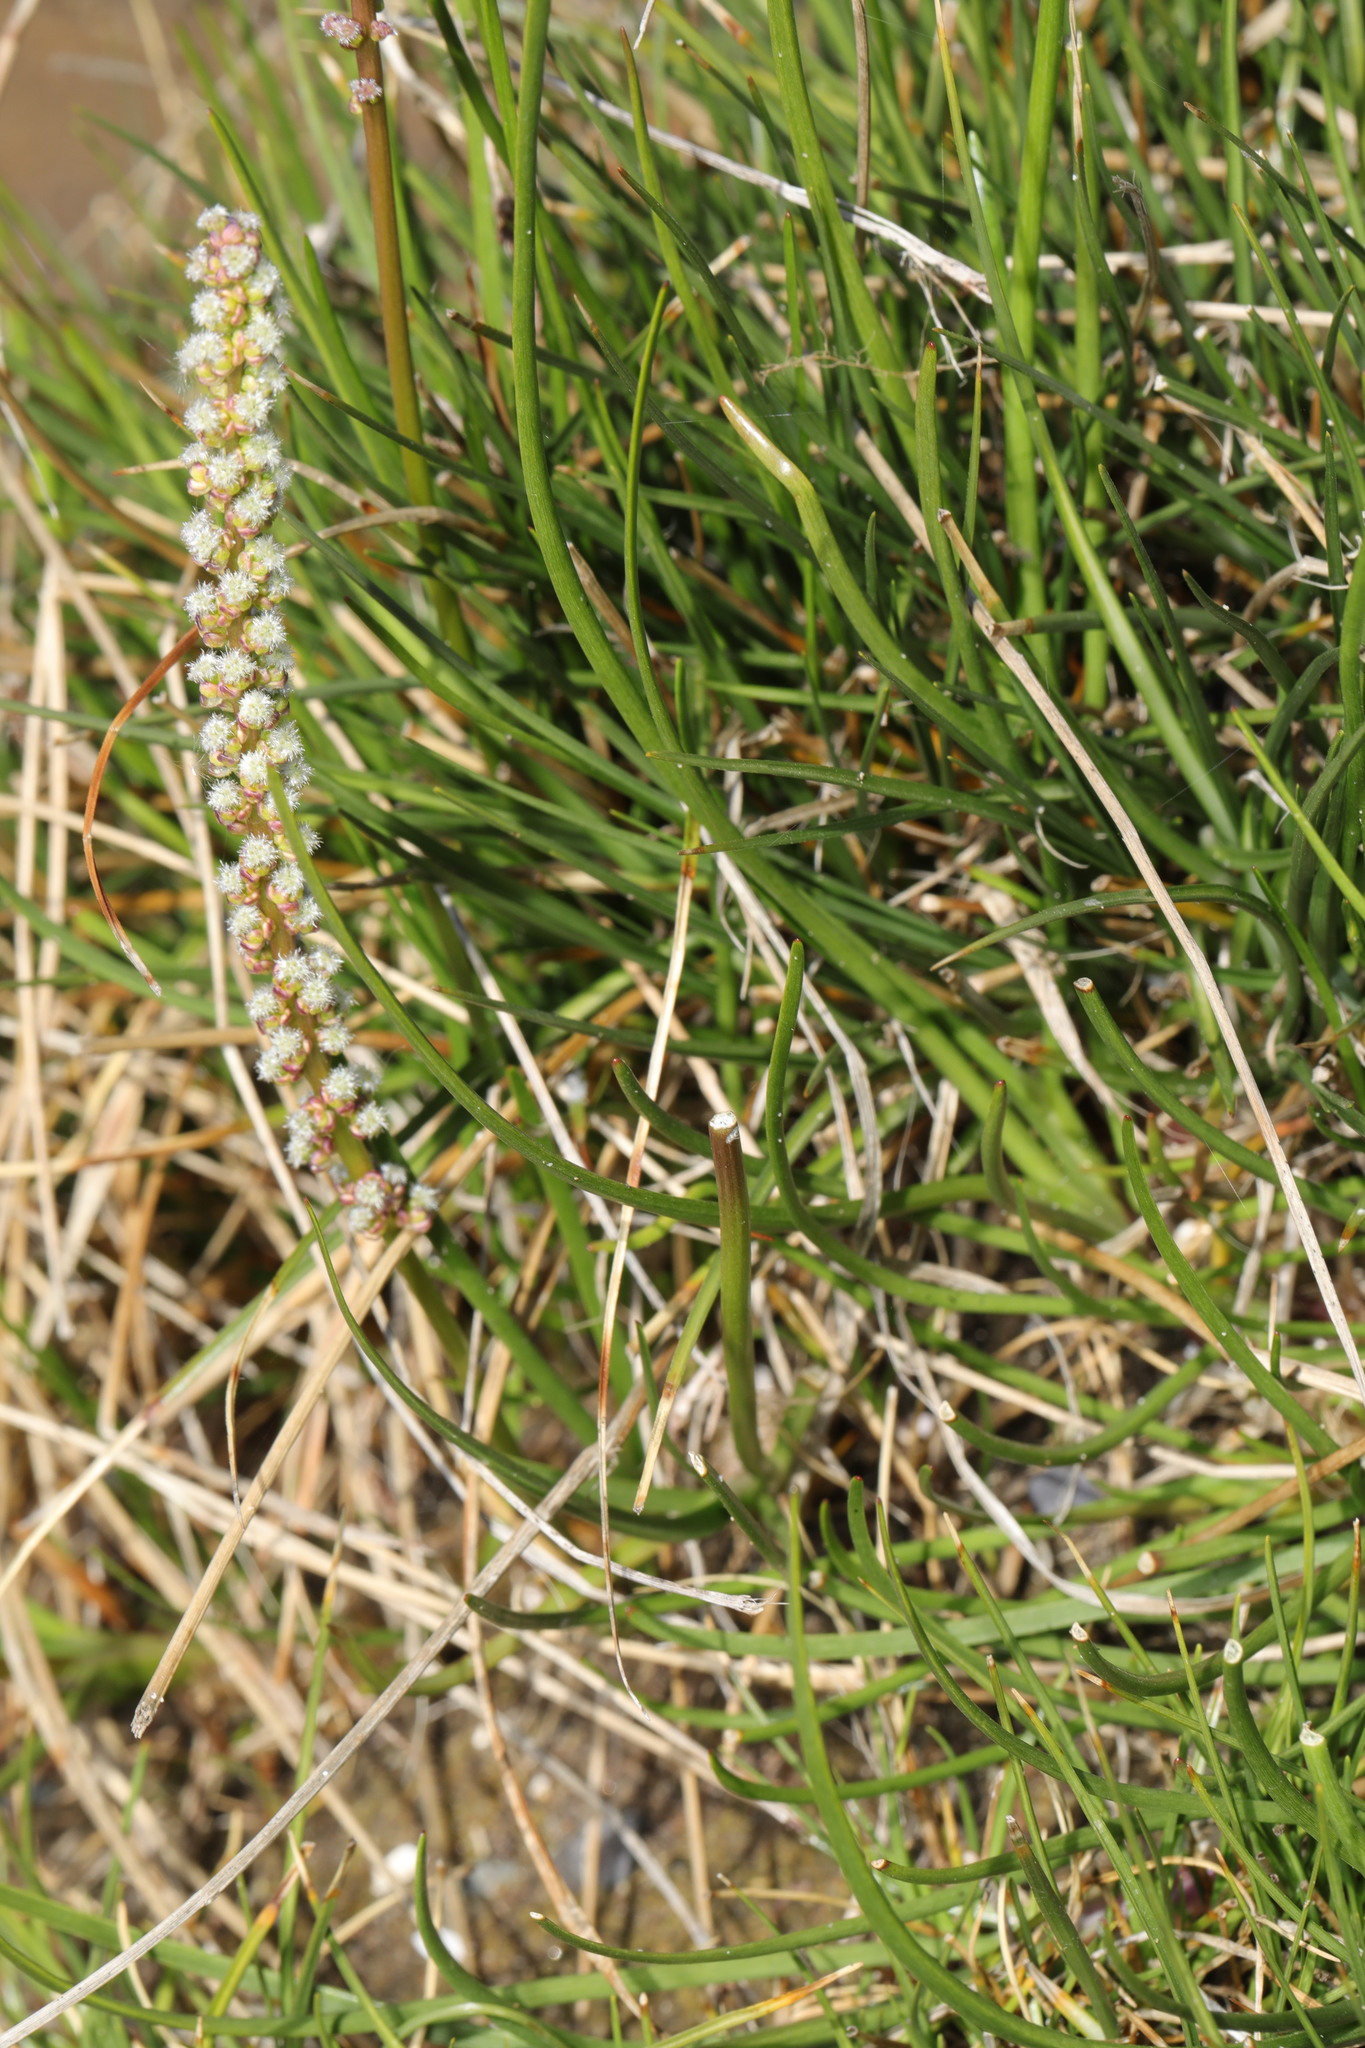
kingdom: Plantae
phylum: Tracheophyta
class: Liliopsida
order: Alismatales
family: Juncaginaceae
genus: Triglochin
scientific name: Triglochin maritima
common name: Sea arrowgrass
